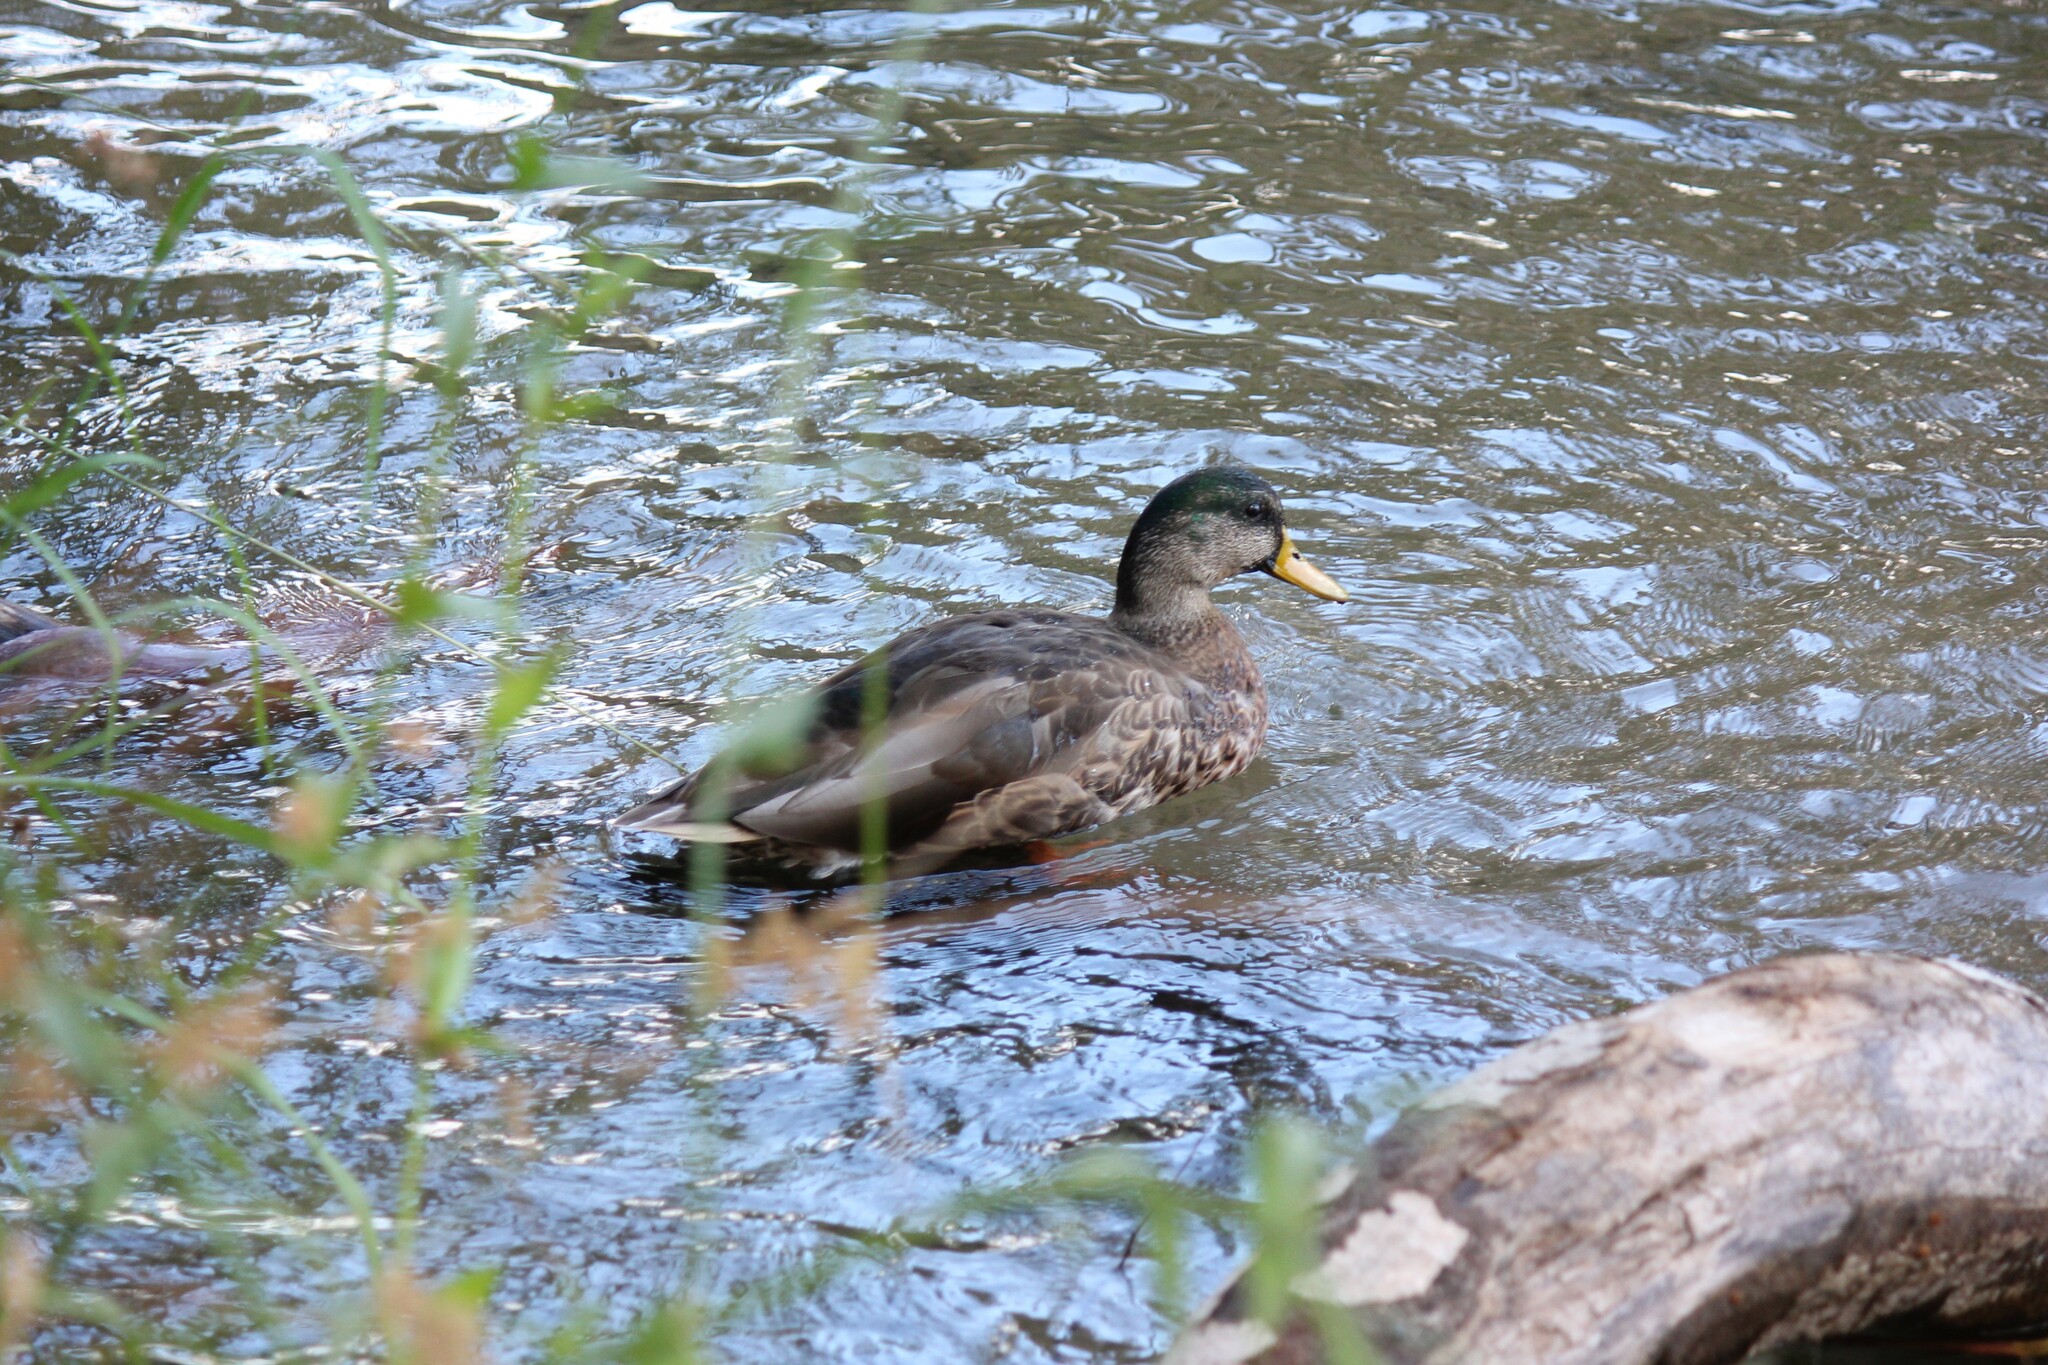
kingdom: Animalia
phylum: Chordata
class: Aves
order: Anseriformes
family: Anatidae
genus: Anas
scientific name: Anas platyrhynchos
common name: Mallard
